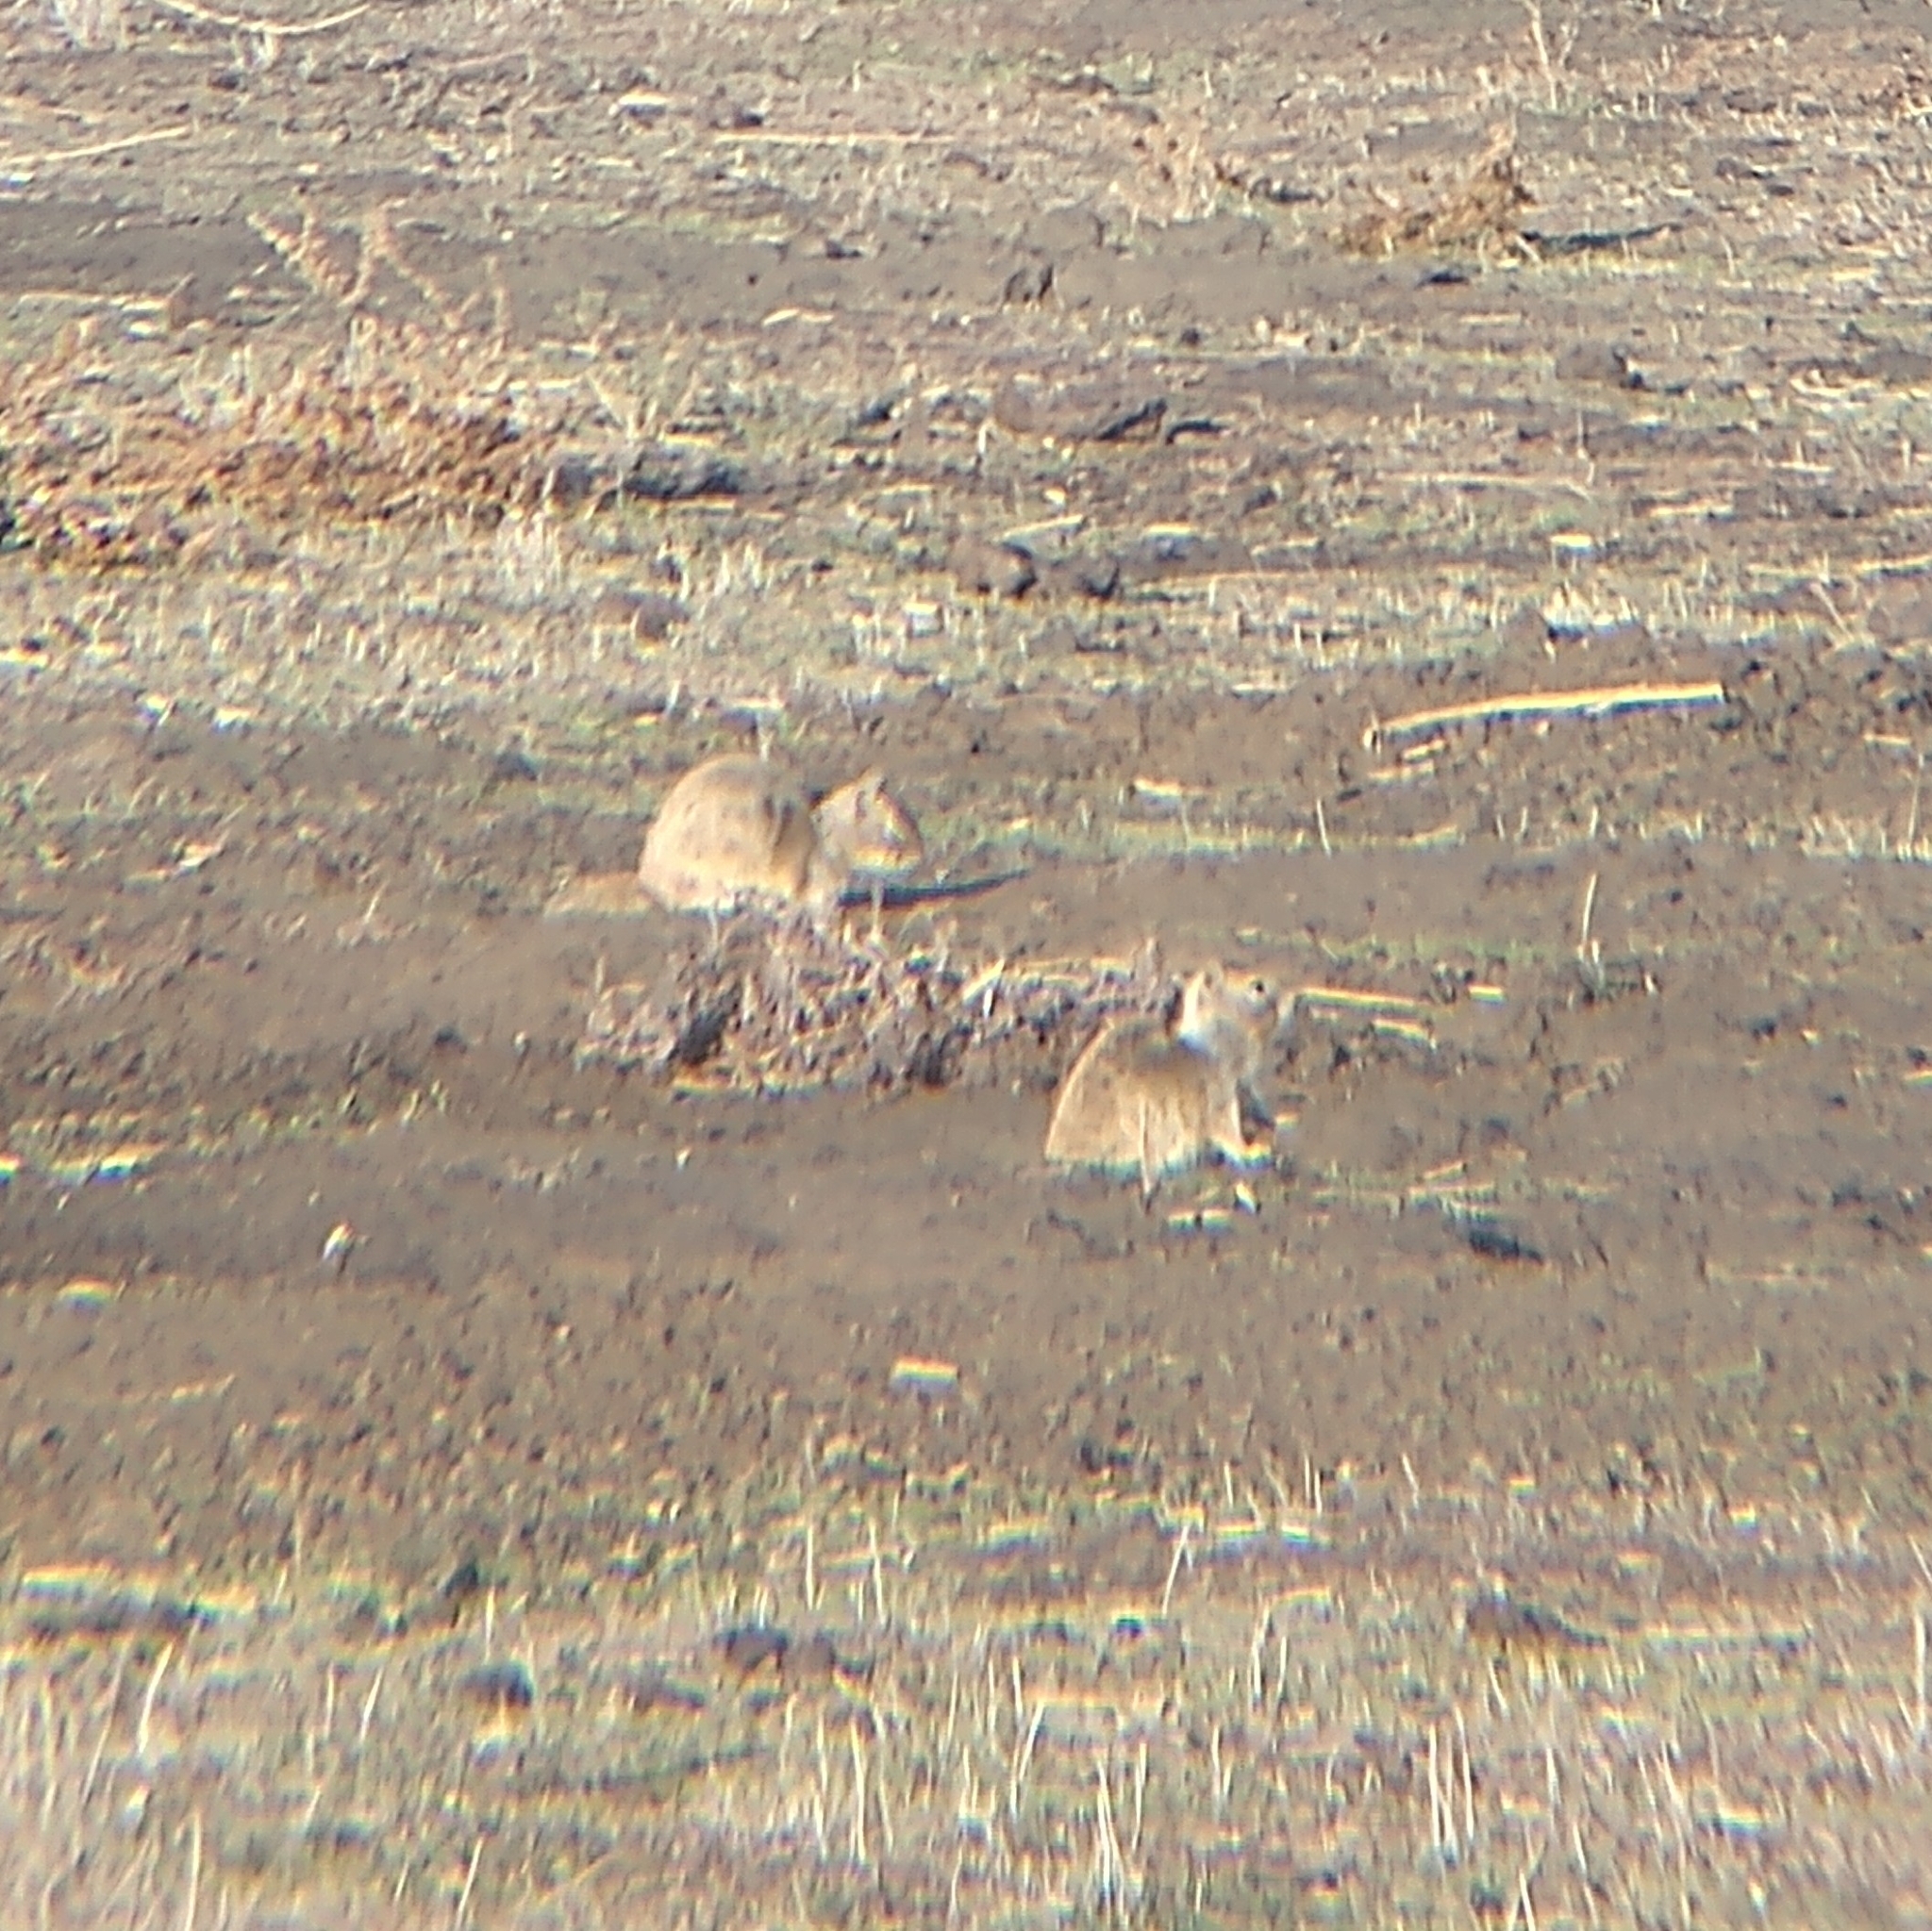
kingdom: Animalia
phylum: Chordata
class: Mammalia
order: Rodentia
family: Sciuridae
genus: Otospermophilus
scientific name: Otospermophilus beecheyi
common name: California ground squirrel
